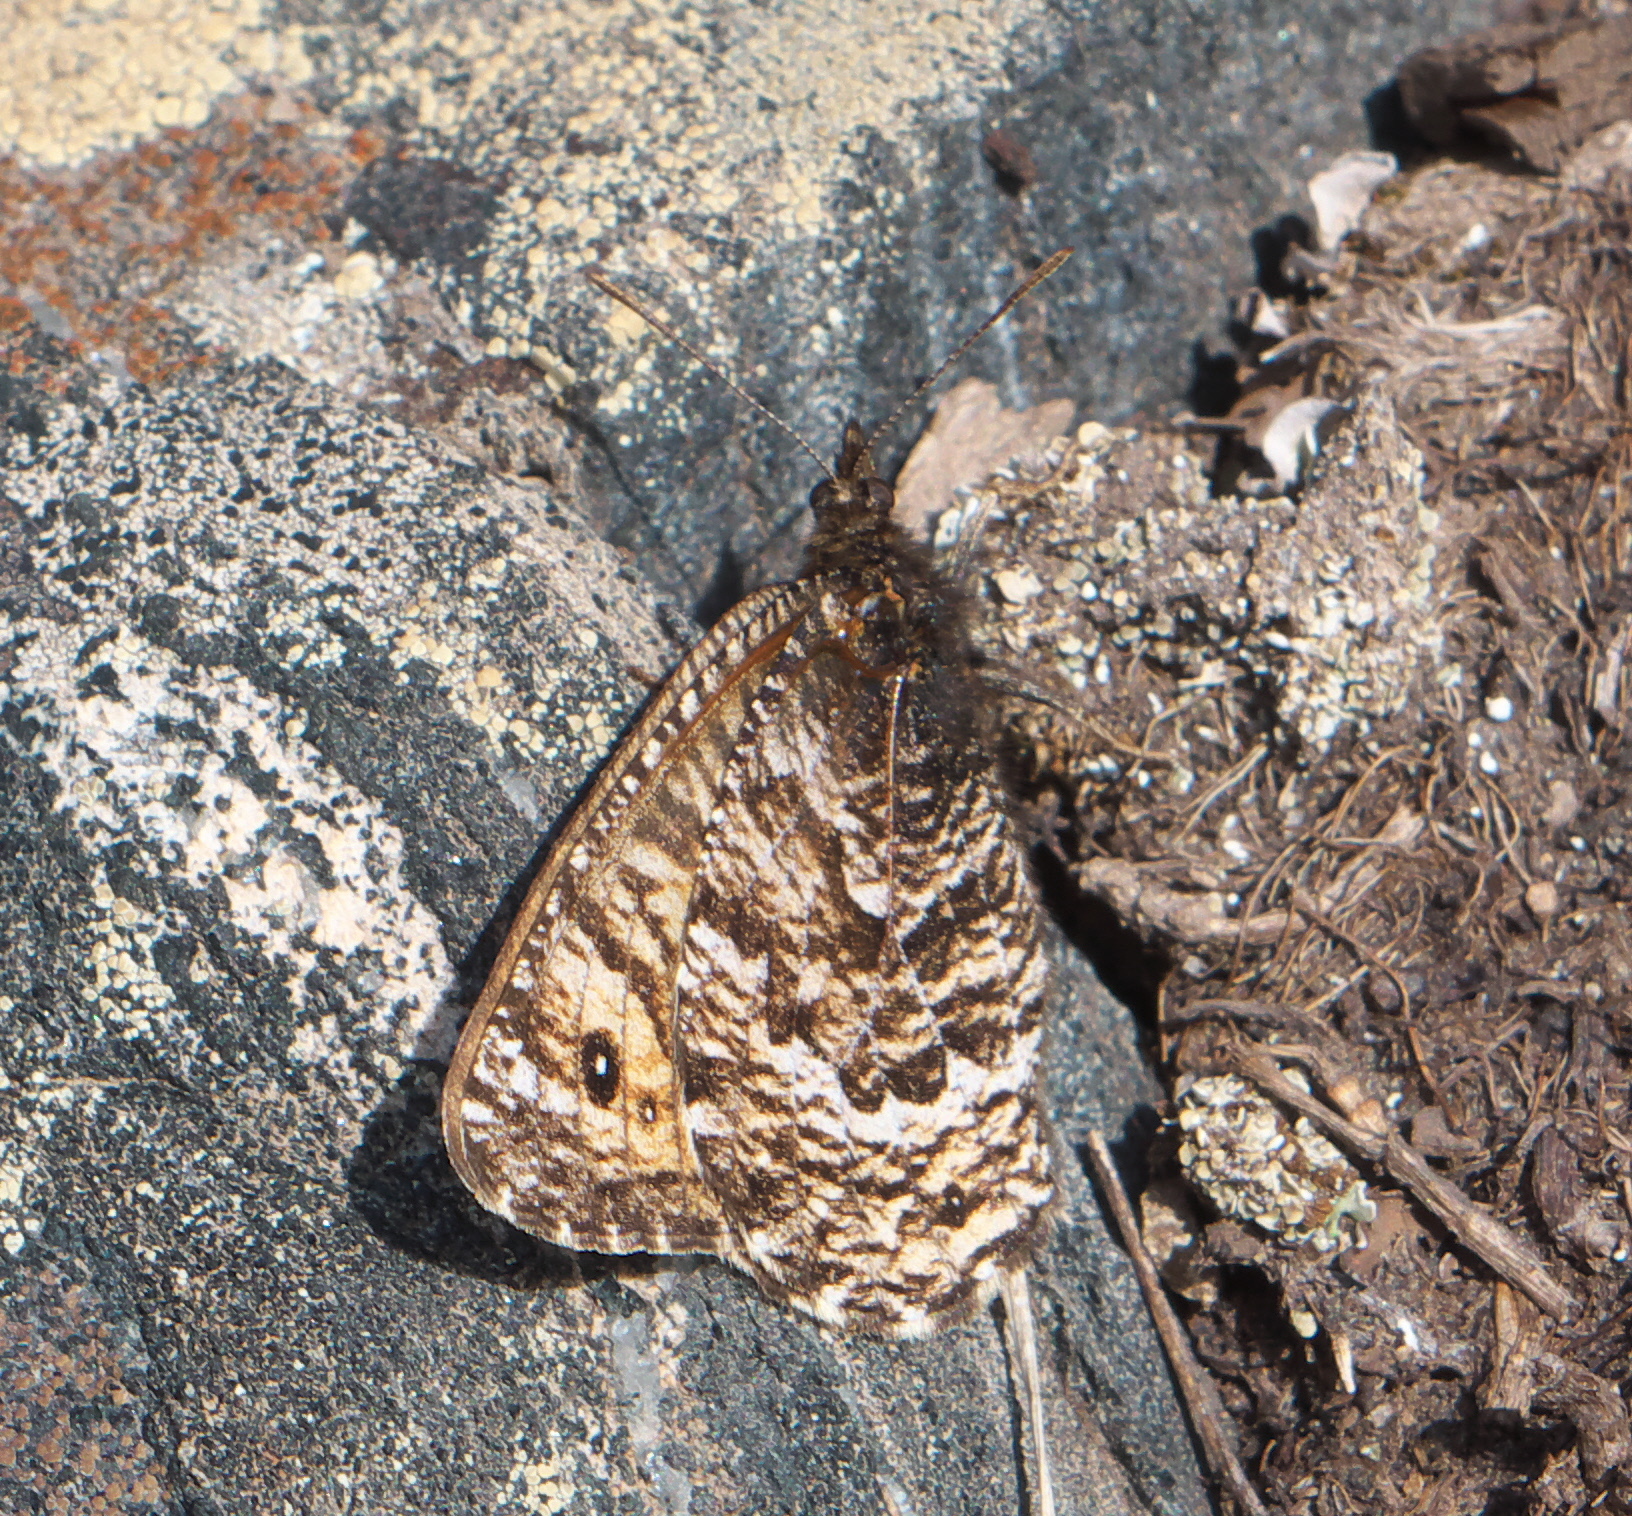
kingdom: Animalia
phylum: Arthropoda
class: Insecta
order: Lepidoptera
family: Nymphalidae
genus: Oeneis
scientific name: Oeneis chryxus
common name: Chryxus arctic
